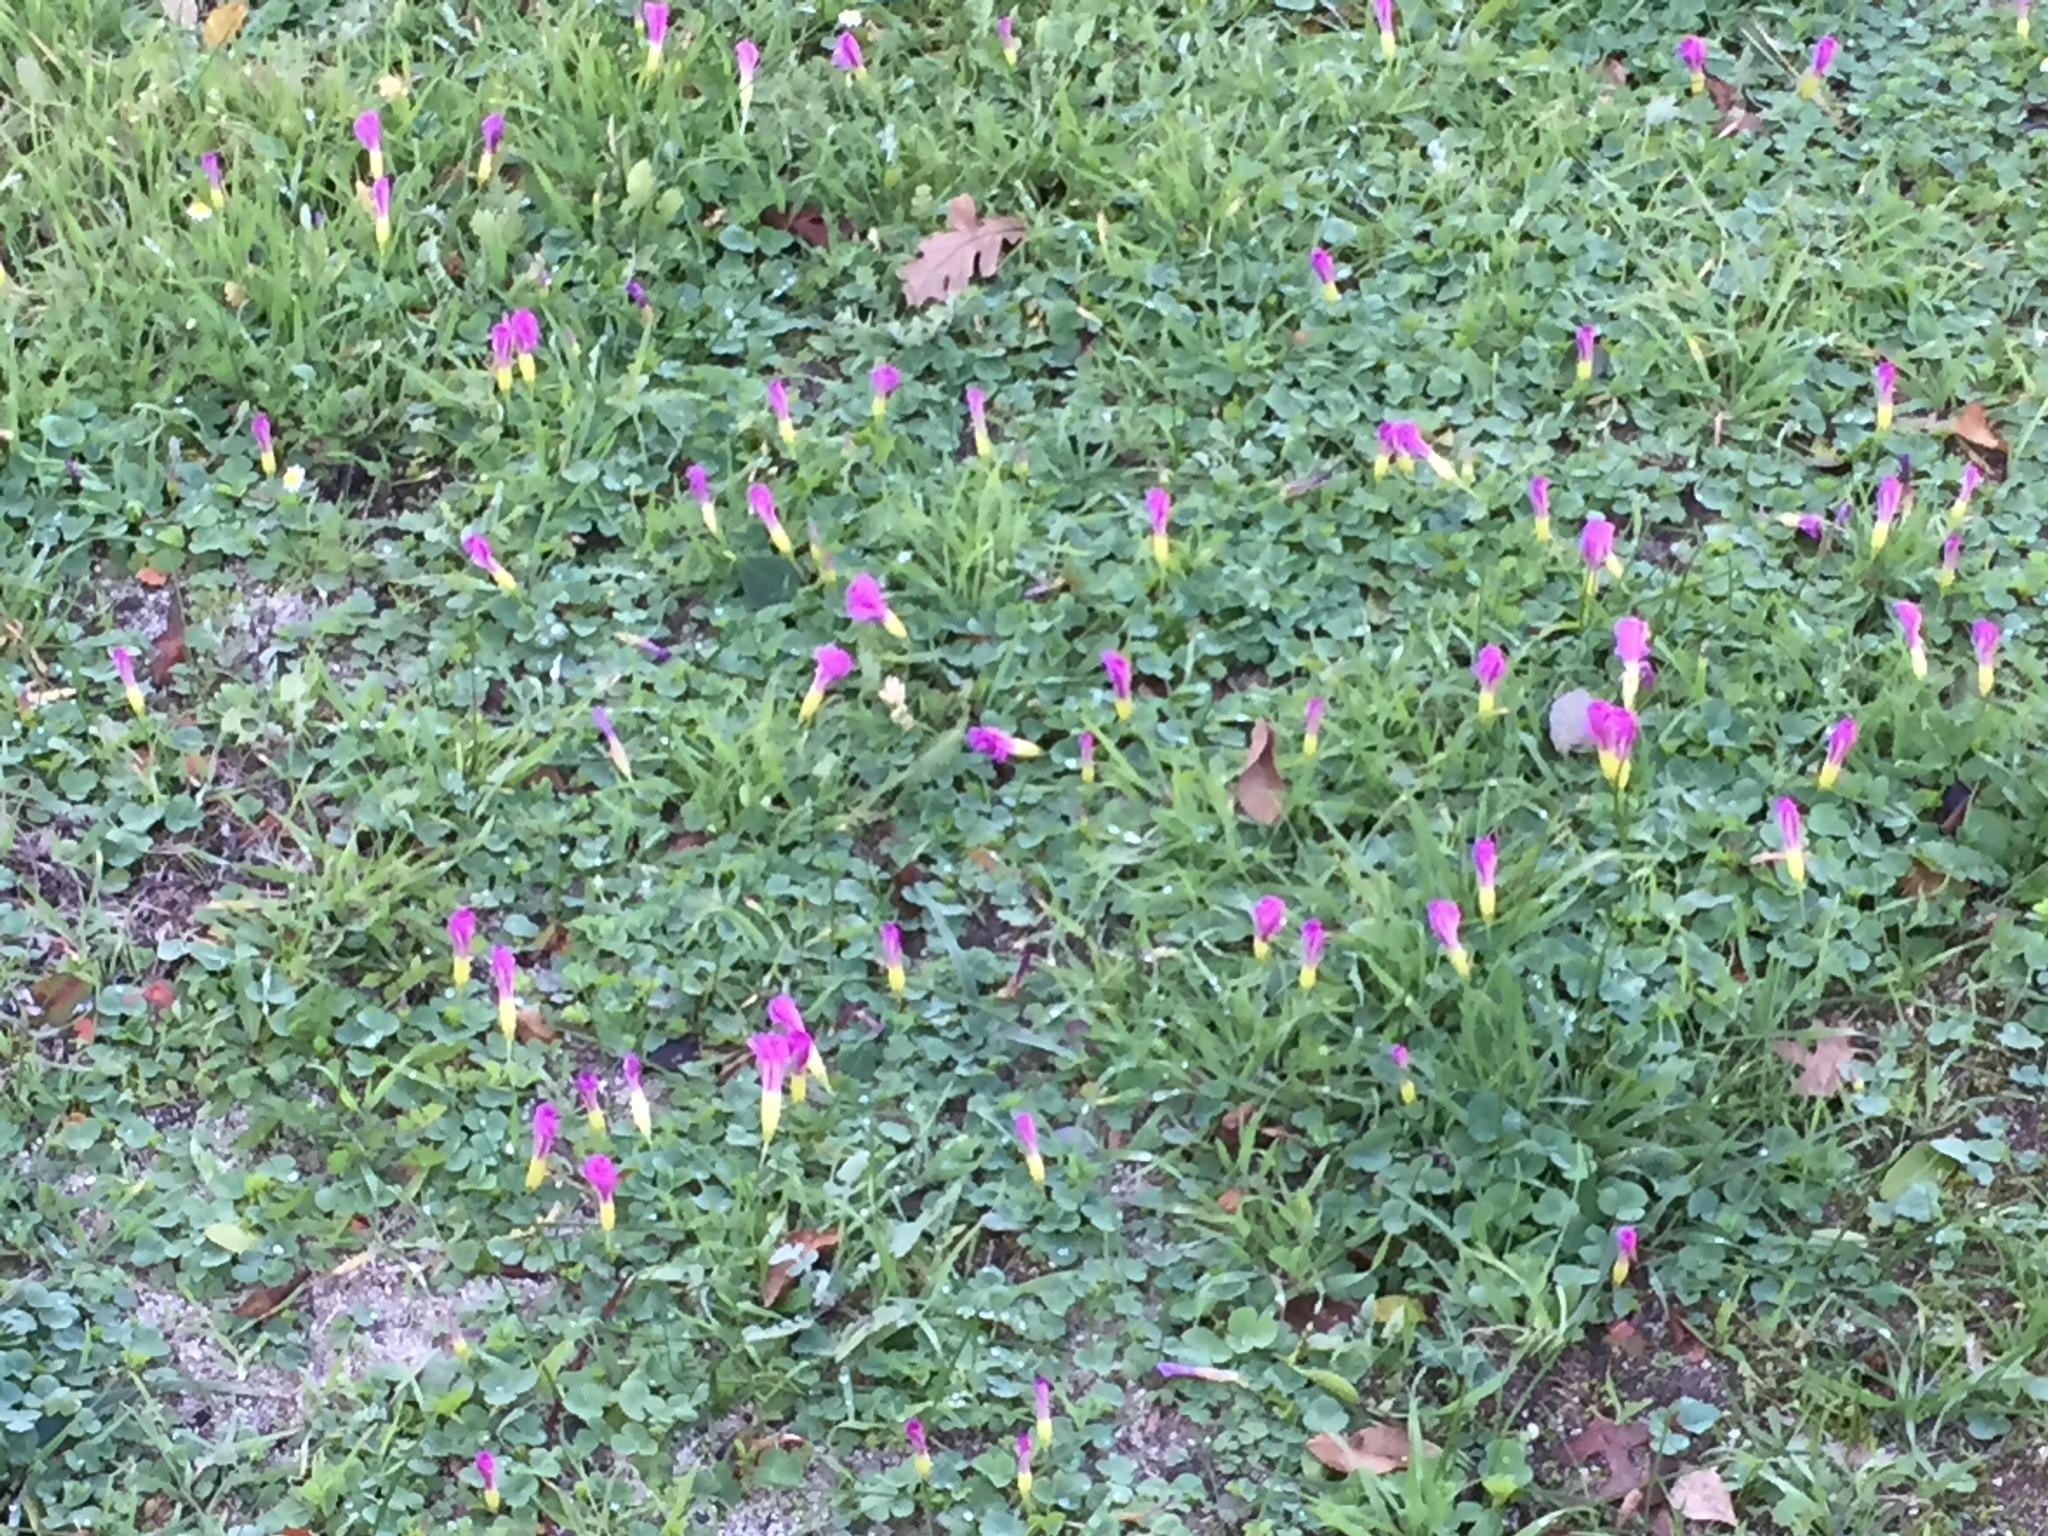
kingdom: Plantae
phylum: Tracheophyta
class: Magnoliopsida
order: Oxalidales
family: Oxalidaceae
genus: Oxalis
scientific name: Oxalis purpurea
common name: Purple woodsorrel
